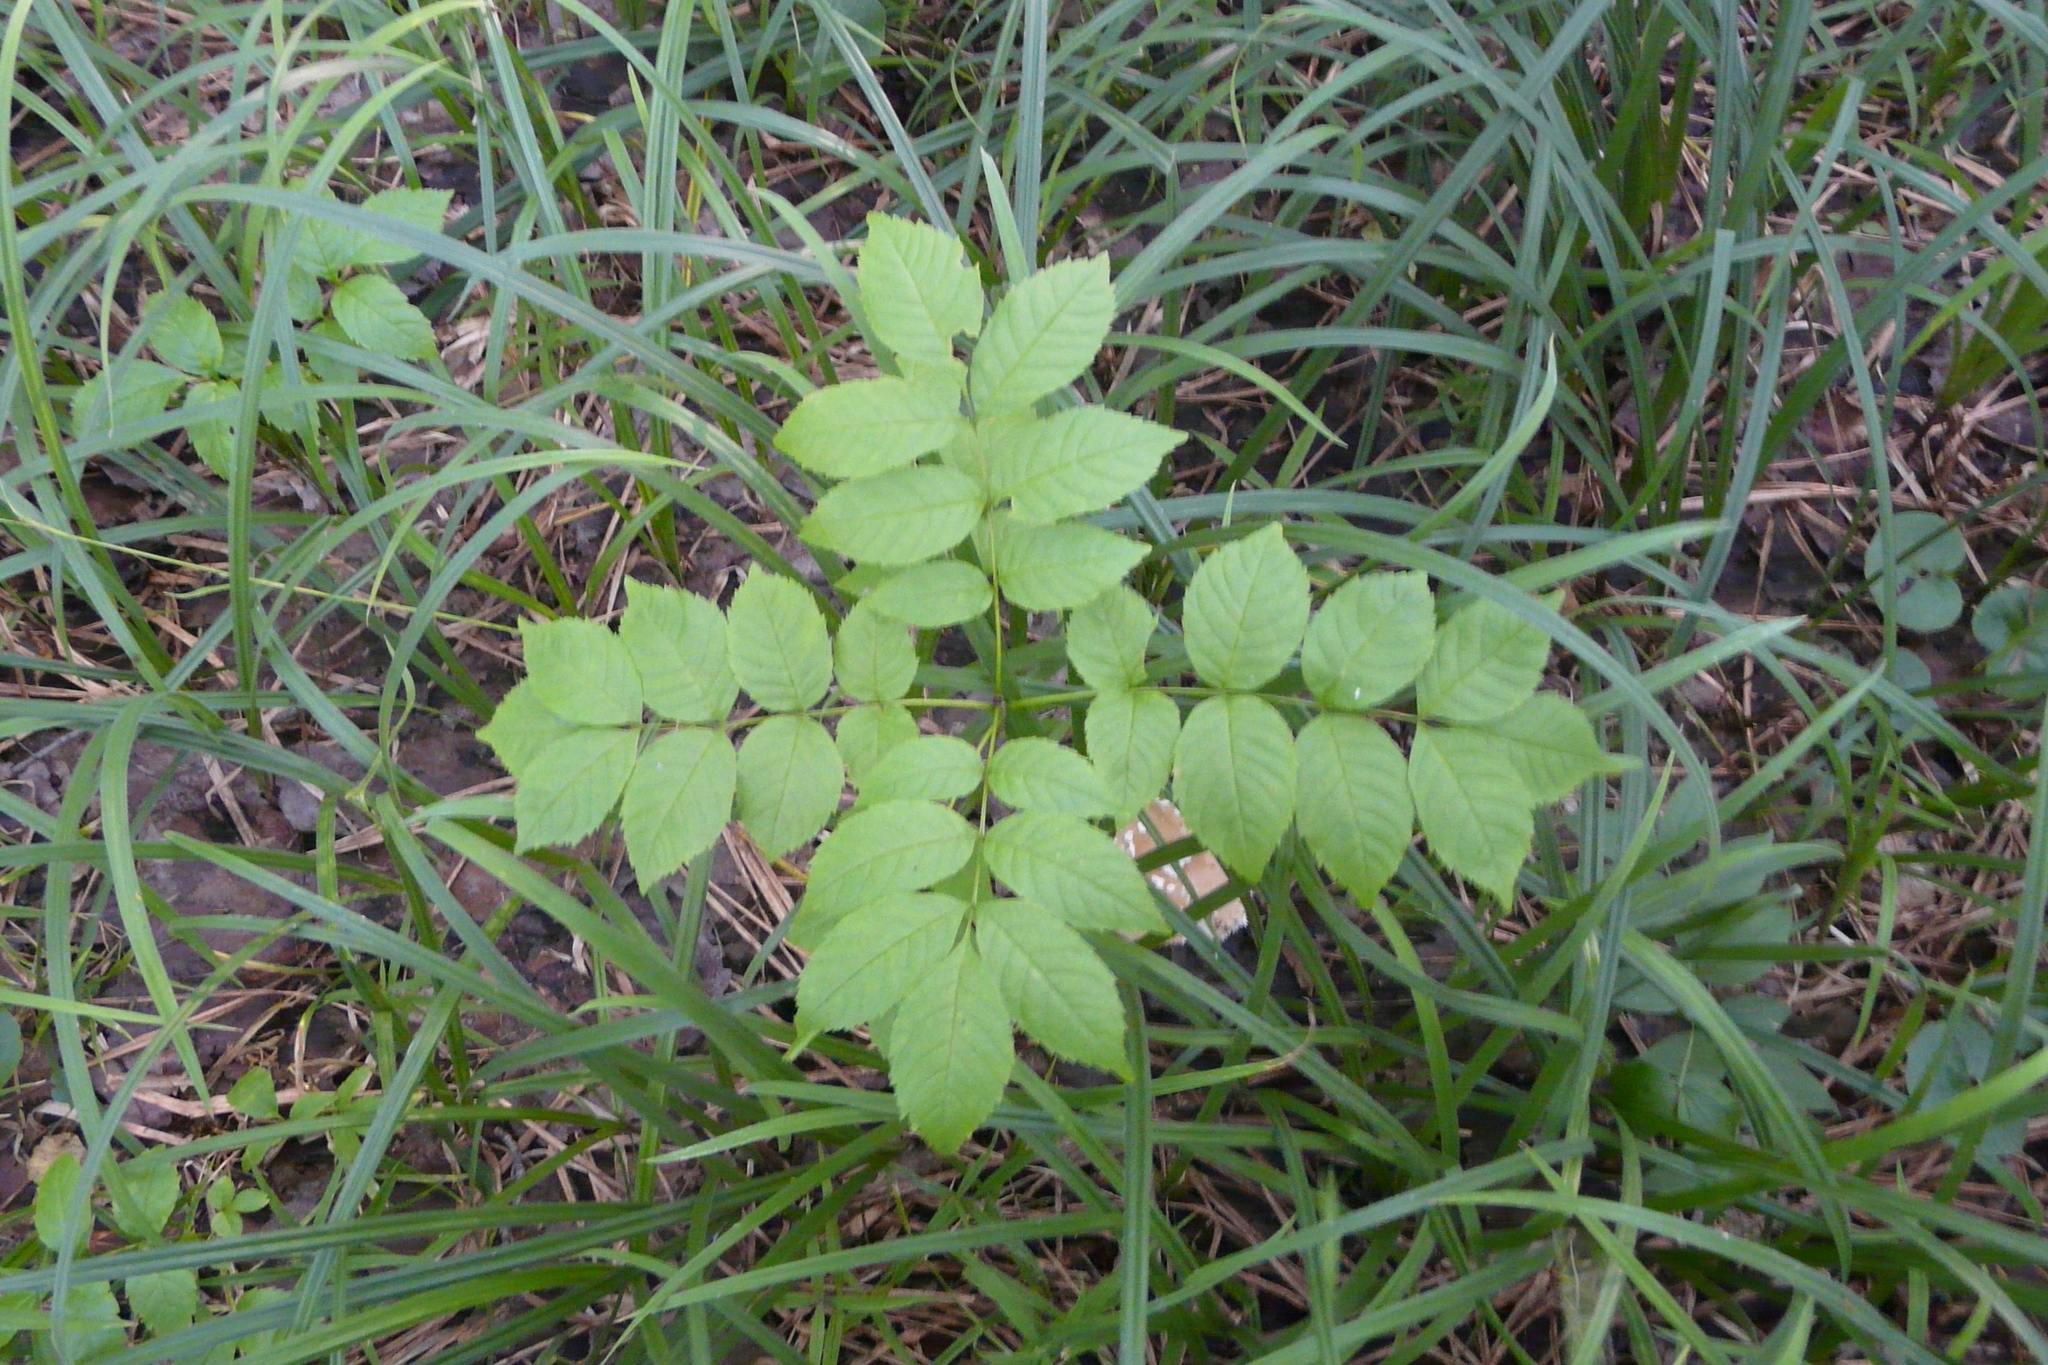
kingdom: Plantae
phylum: Tracheophyta
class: Magnoliopsida
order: Lamiales
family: Oleaceae
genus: Fraxinus
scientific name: Fraxinus excelsior
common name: European ash
